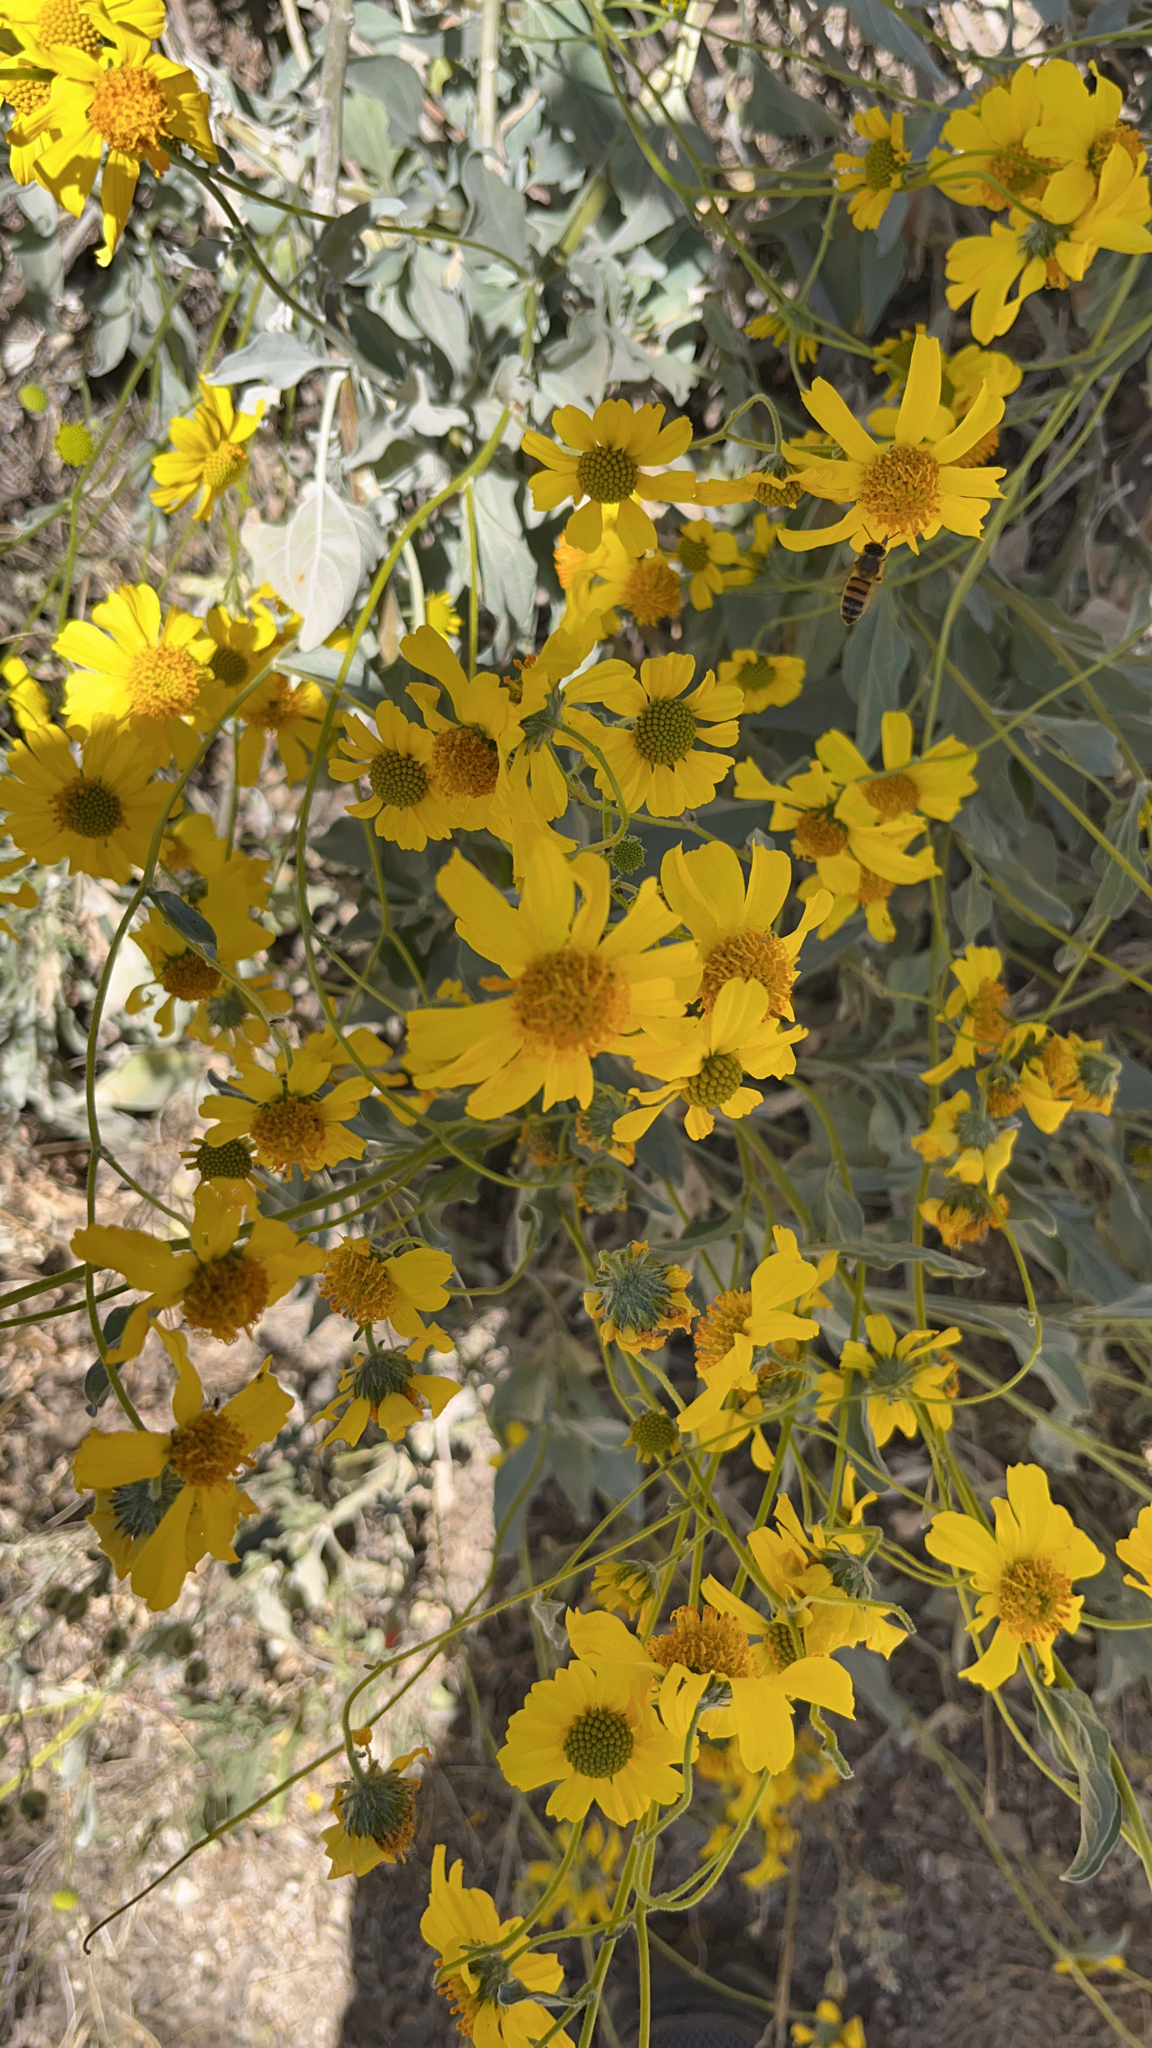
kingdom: Plantae
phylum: Tracheophyta
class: Magnoliopsida
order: Asterales
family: Asteraceae
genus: Encelia
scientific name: Encelia farinosa
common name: Brittlebush
